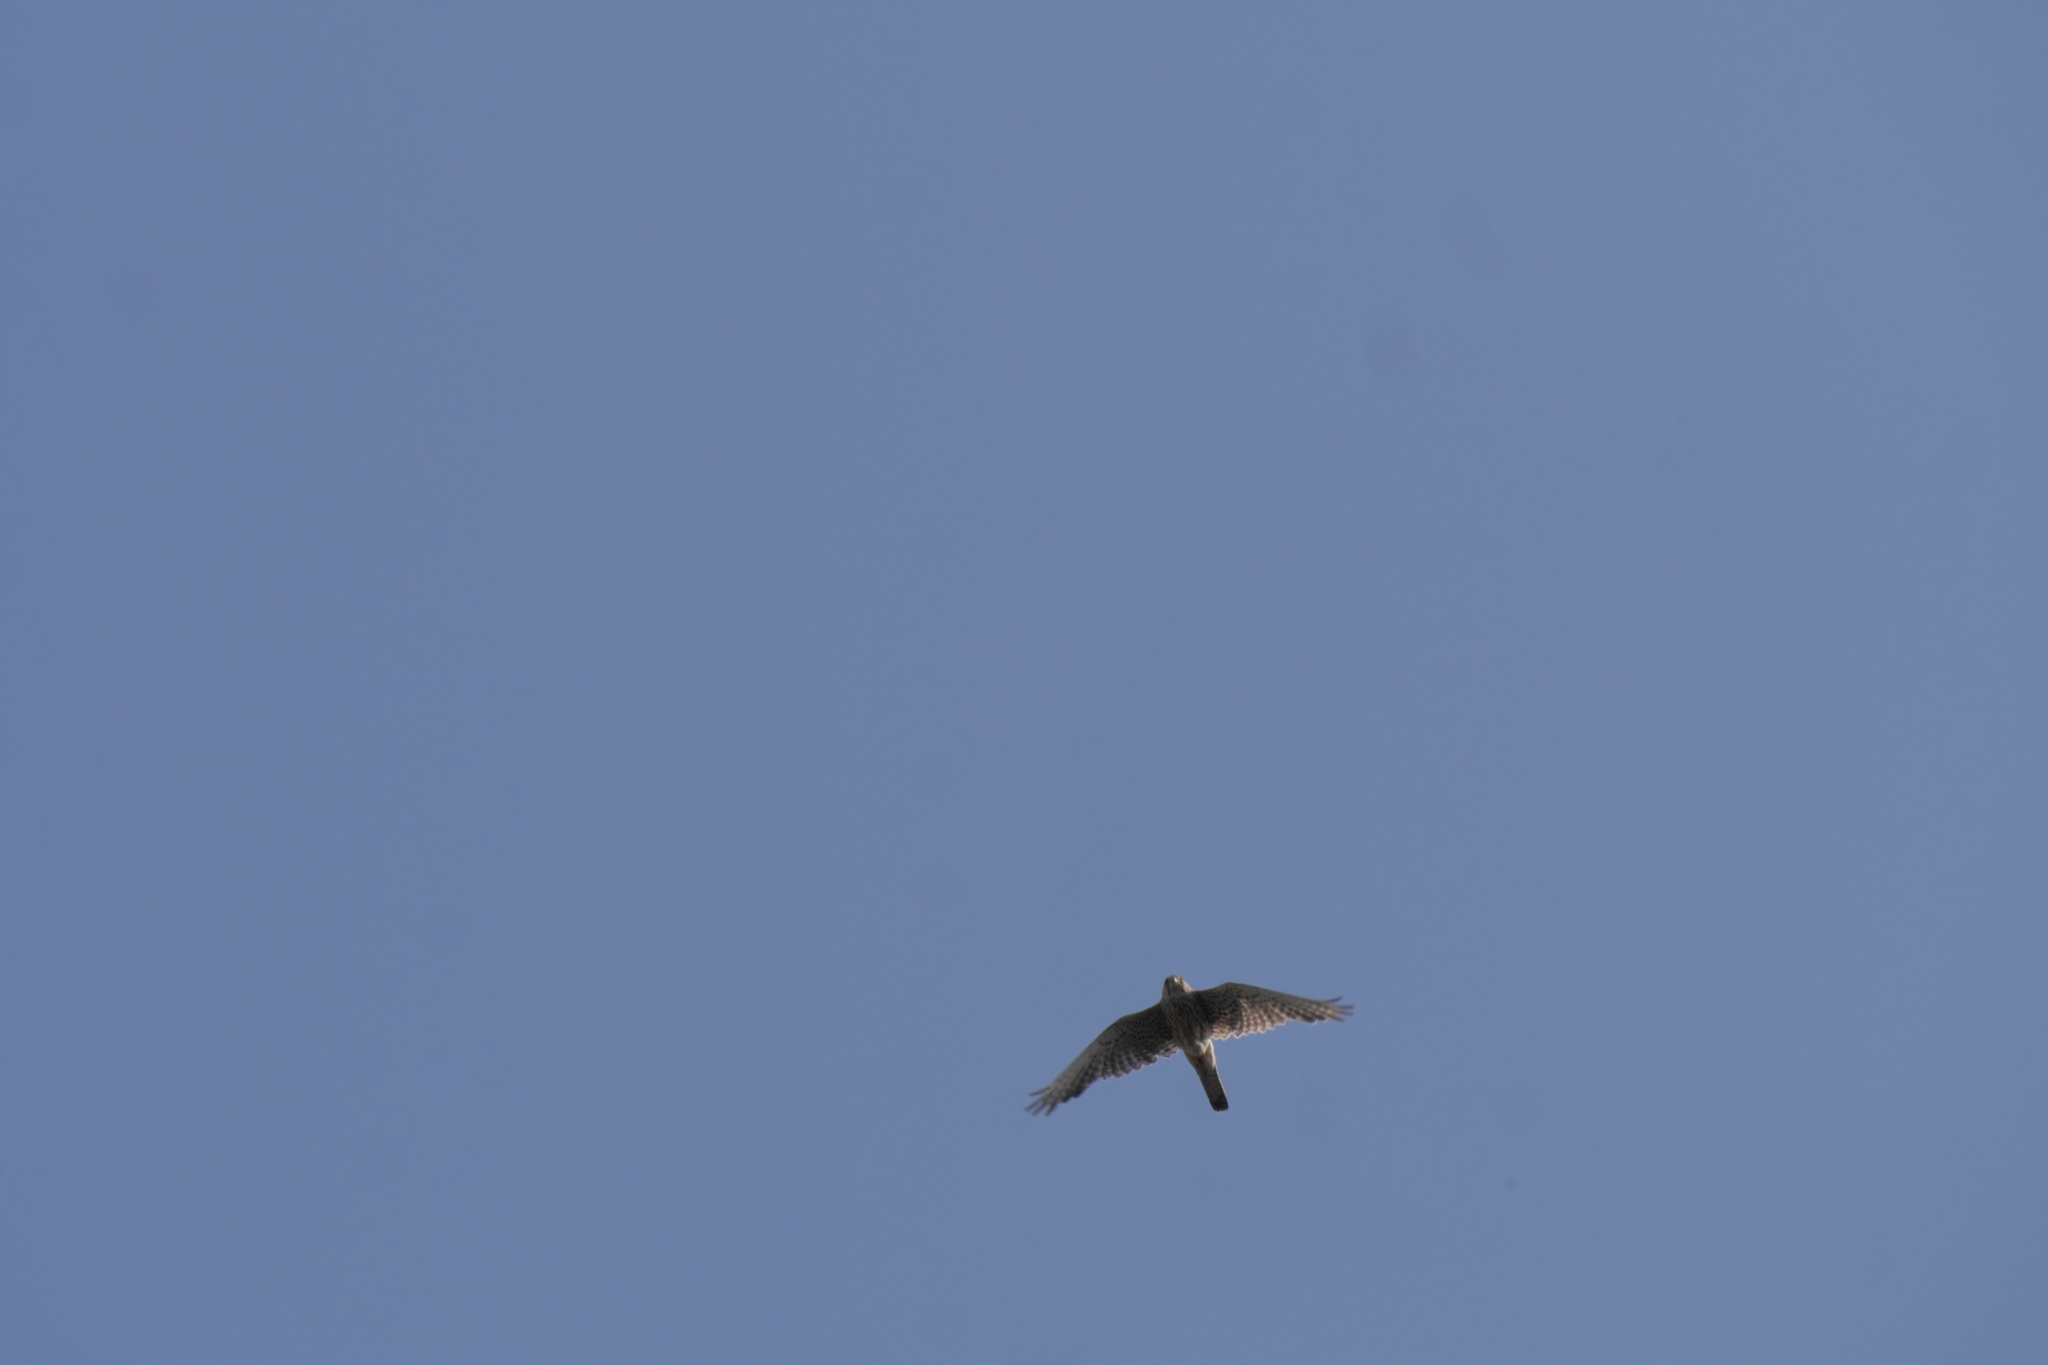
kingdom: Animalia
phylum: Chordata
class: Aves
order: Falconiformes
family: Falconidae
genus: Falco
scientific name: Falco tinnunculus
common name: Common kestrel
